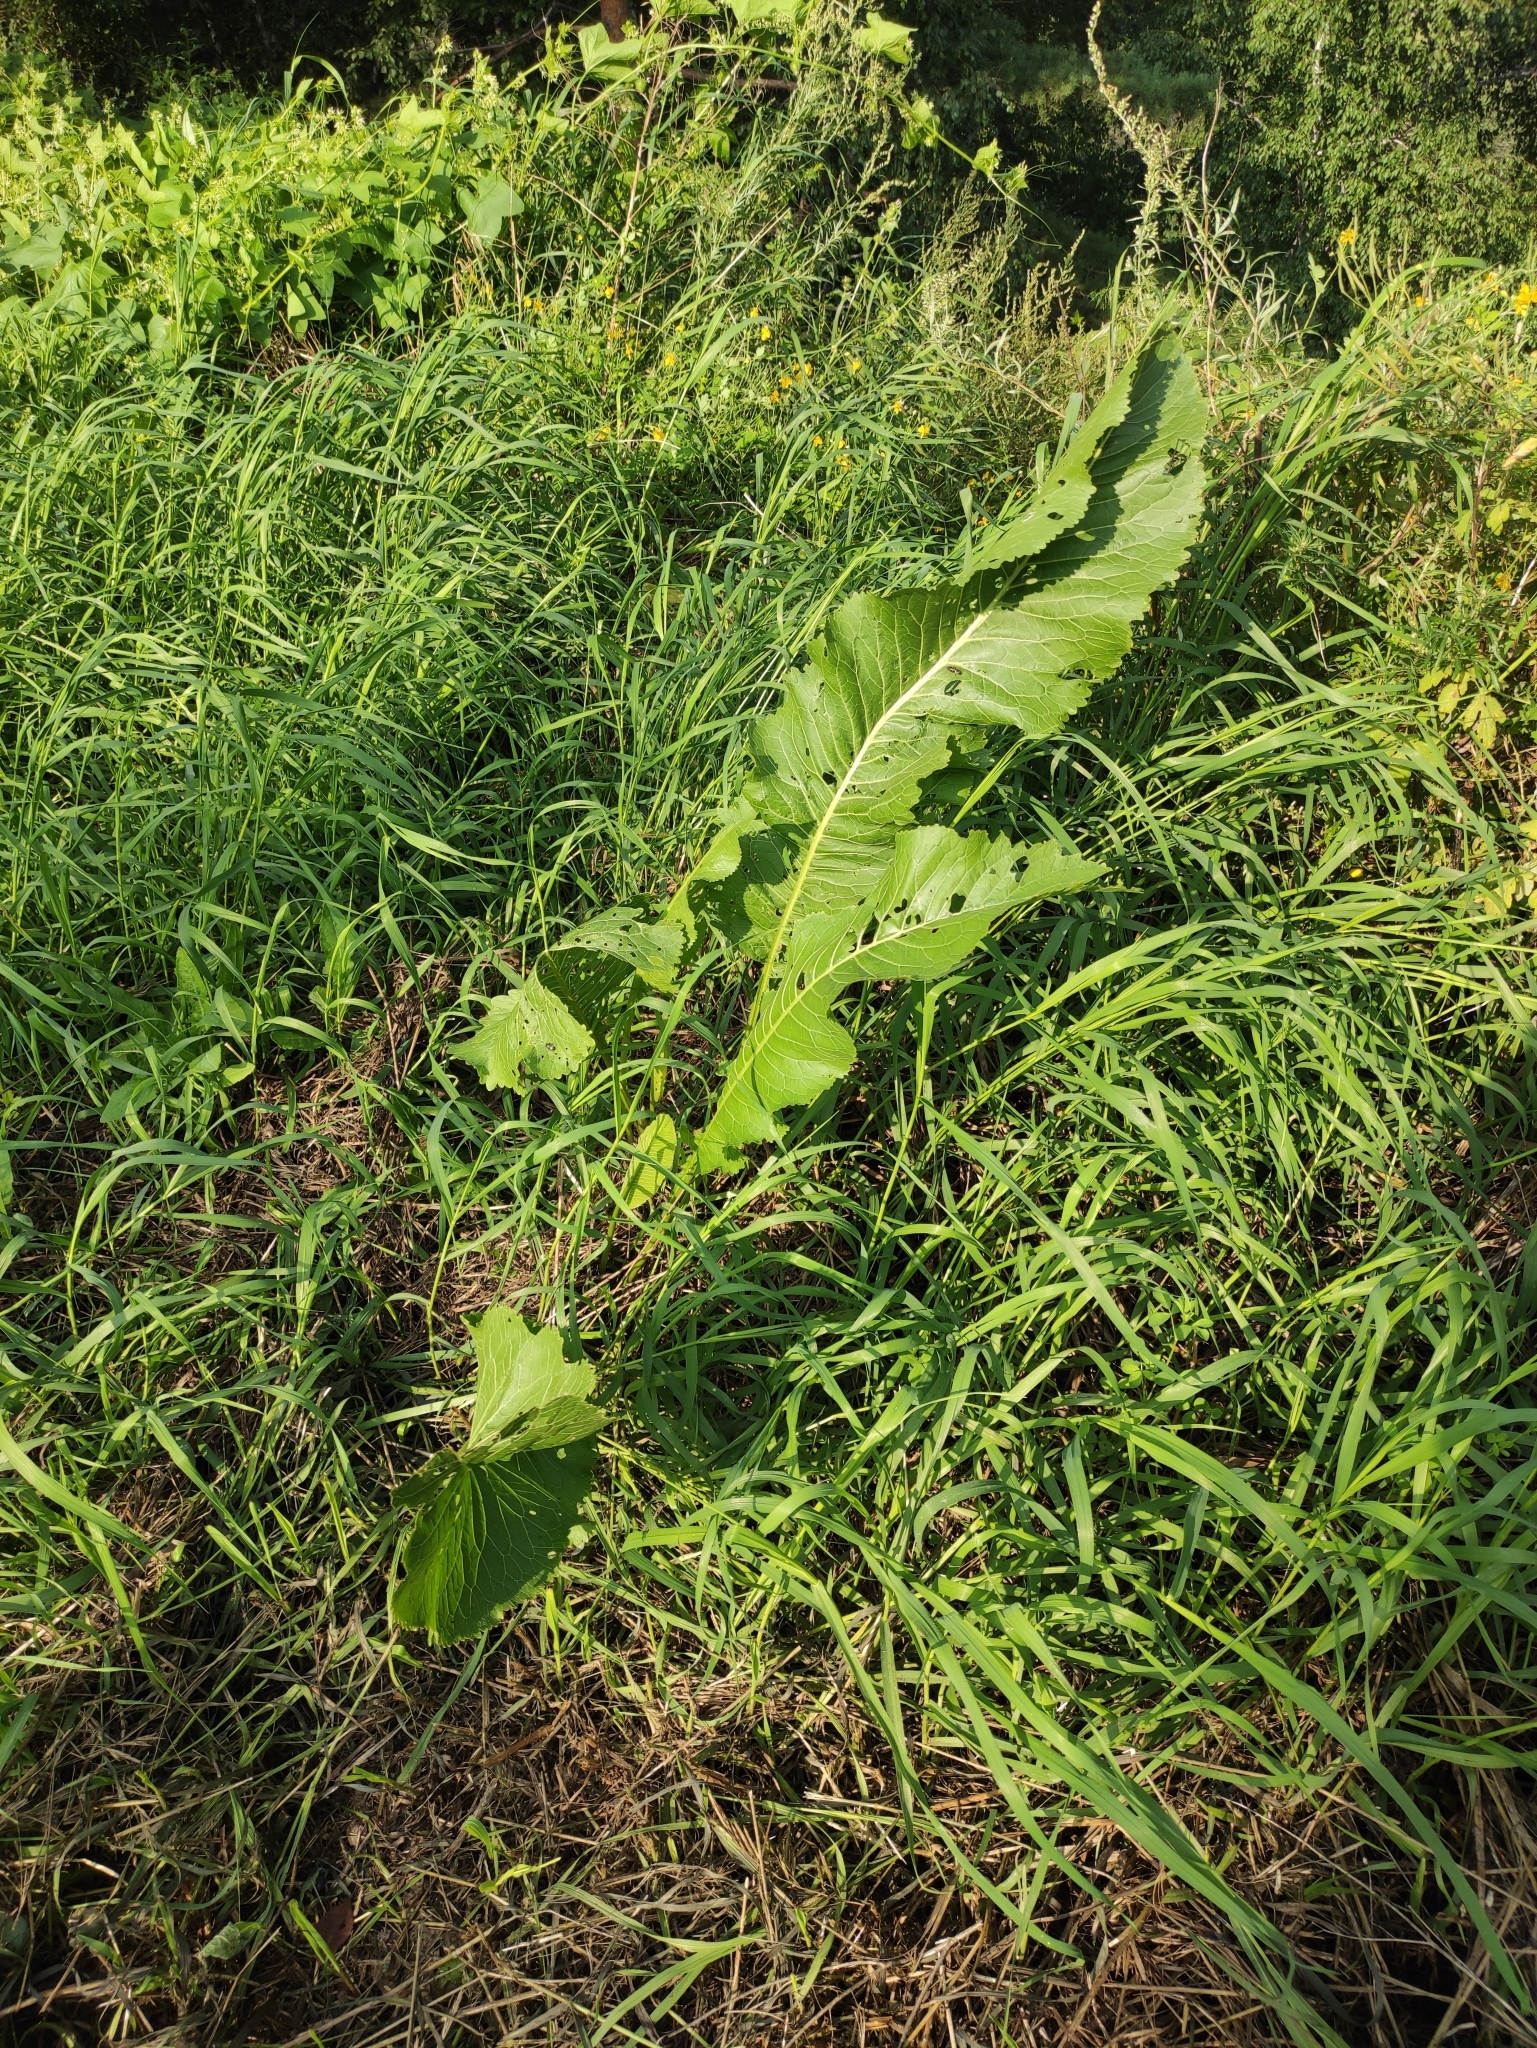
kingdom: Plantae
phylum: Tracheophyta
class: Magnoliopsida
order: Brassicales
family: Brassicaceae
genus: Armoracia
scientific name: Armoracia rusticana
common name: Horseradish
